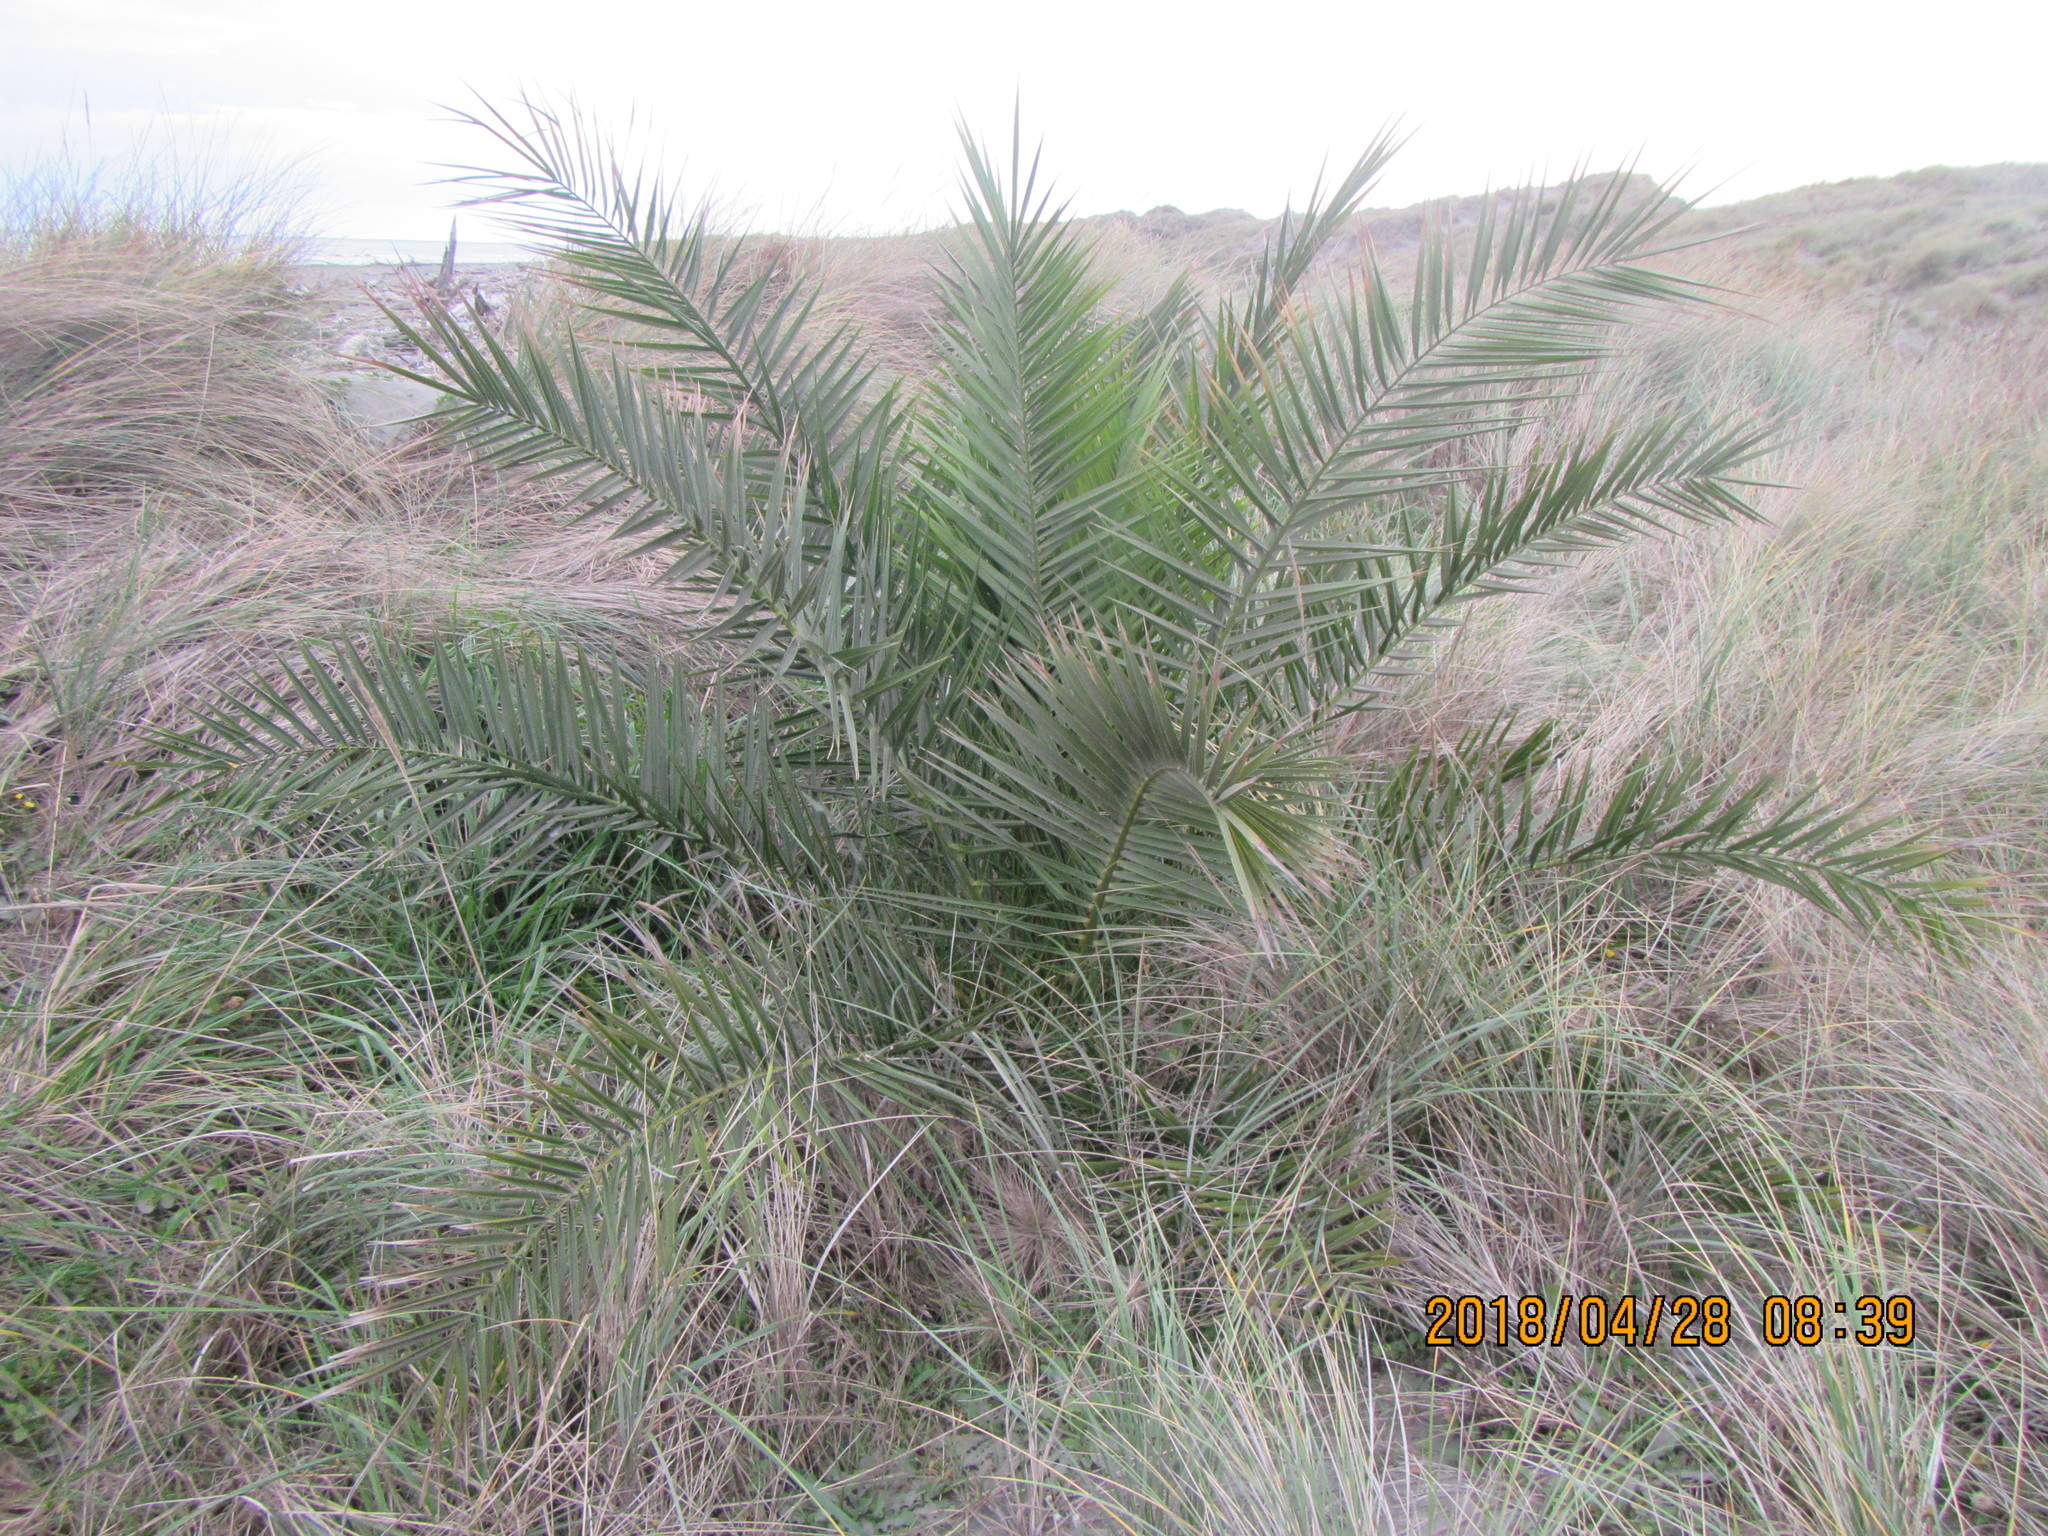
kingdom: Plantae
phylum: Tracheophyta
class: Liliopsida
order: Arecales
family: Arecaceae
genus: Rhopalostylis
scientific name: Rhopalostylis sapida
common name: Feather-duster palm
